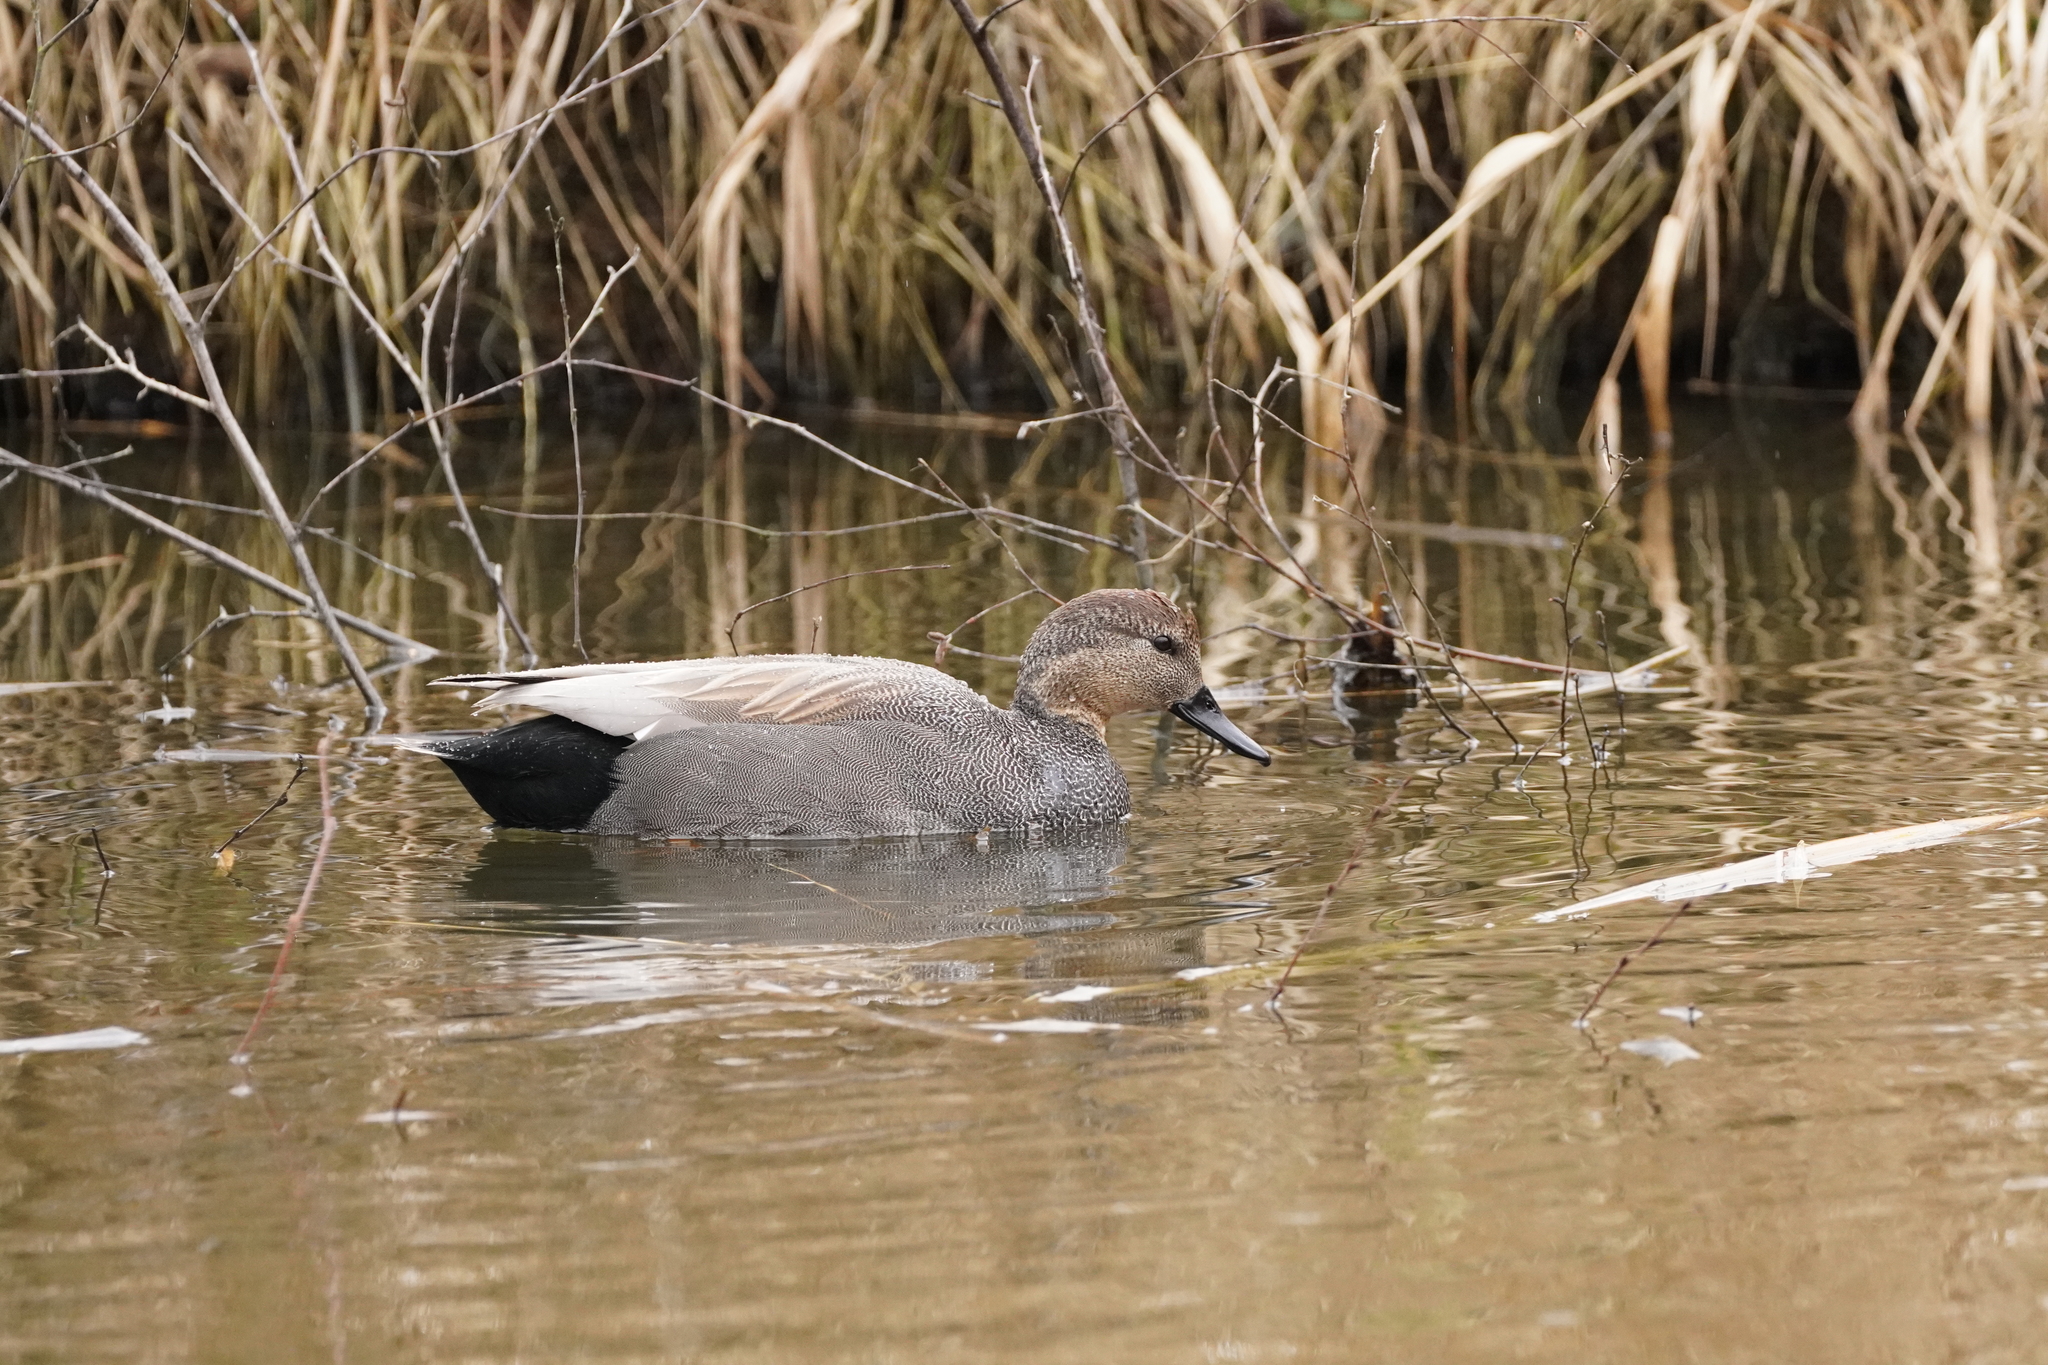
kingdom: Animalia
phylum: Chordata
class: Aves
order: Anseriformes
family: Anatidae
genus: Mareca
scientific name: Mareca strepera
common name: Gadwall
